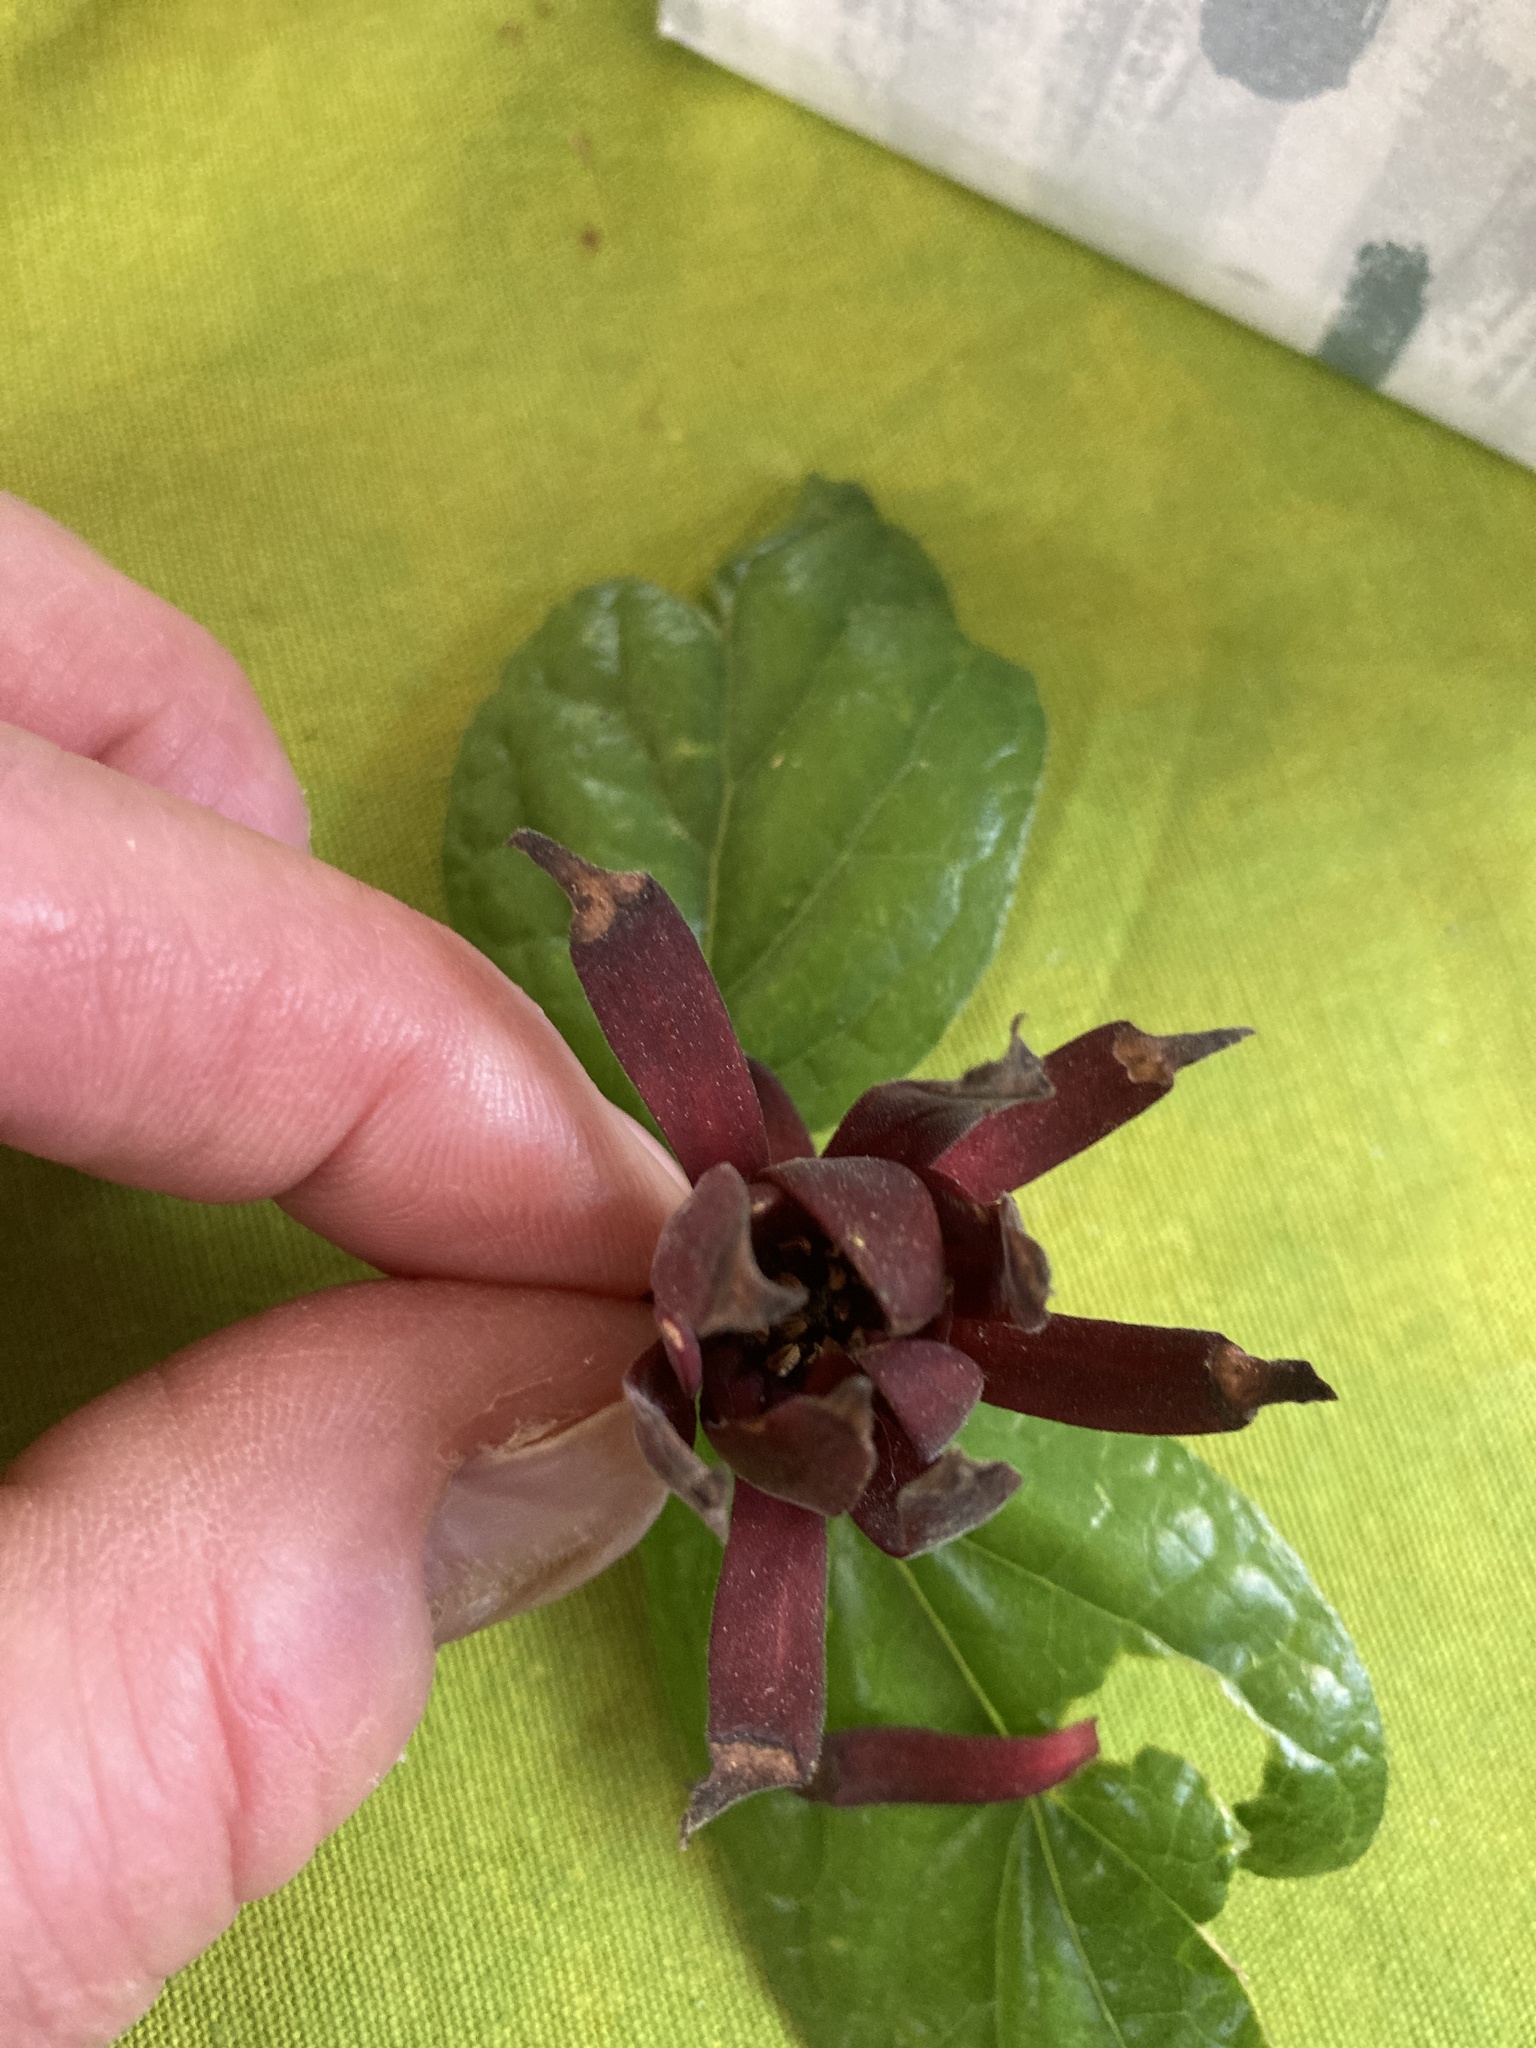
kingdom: Plantae
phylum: Tracheophyta
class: Magnoliopsida
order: Laurales
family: Calycanthaceae
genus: Calycanthus
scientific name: Calycanthus floridus
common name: Carolina-allspice
